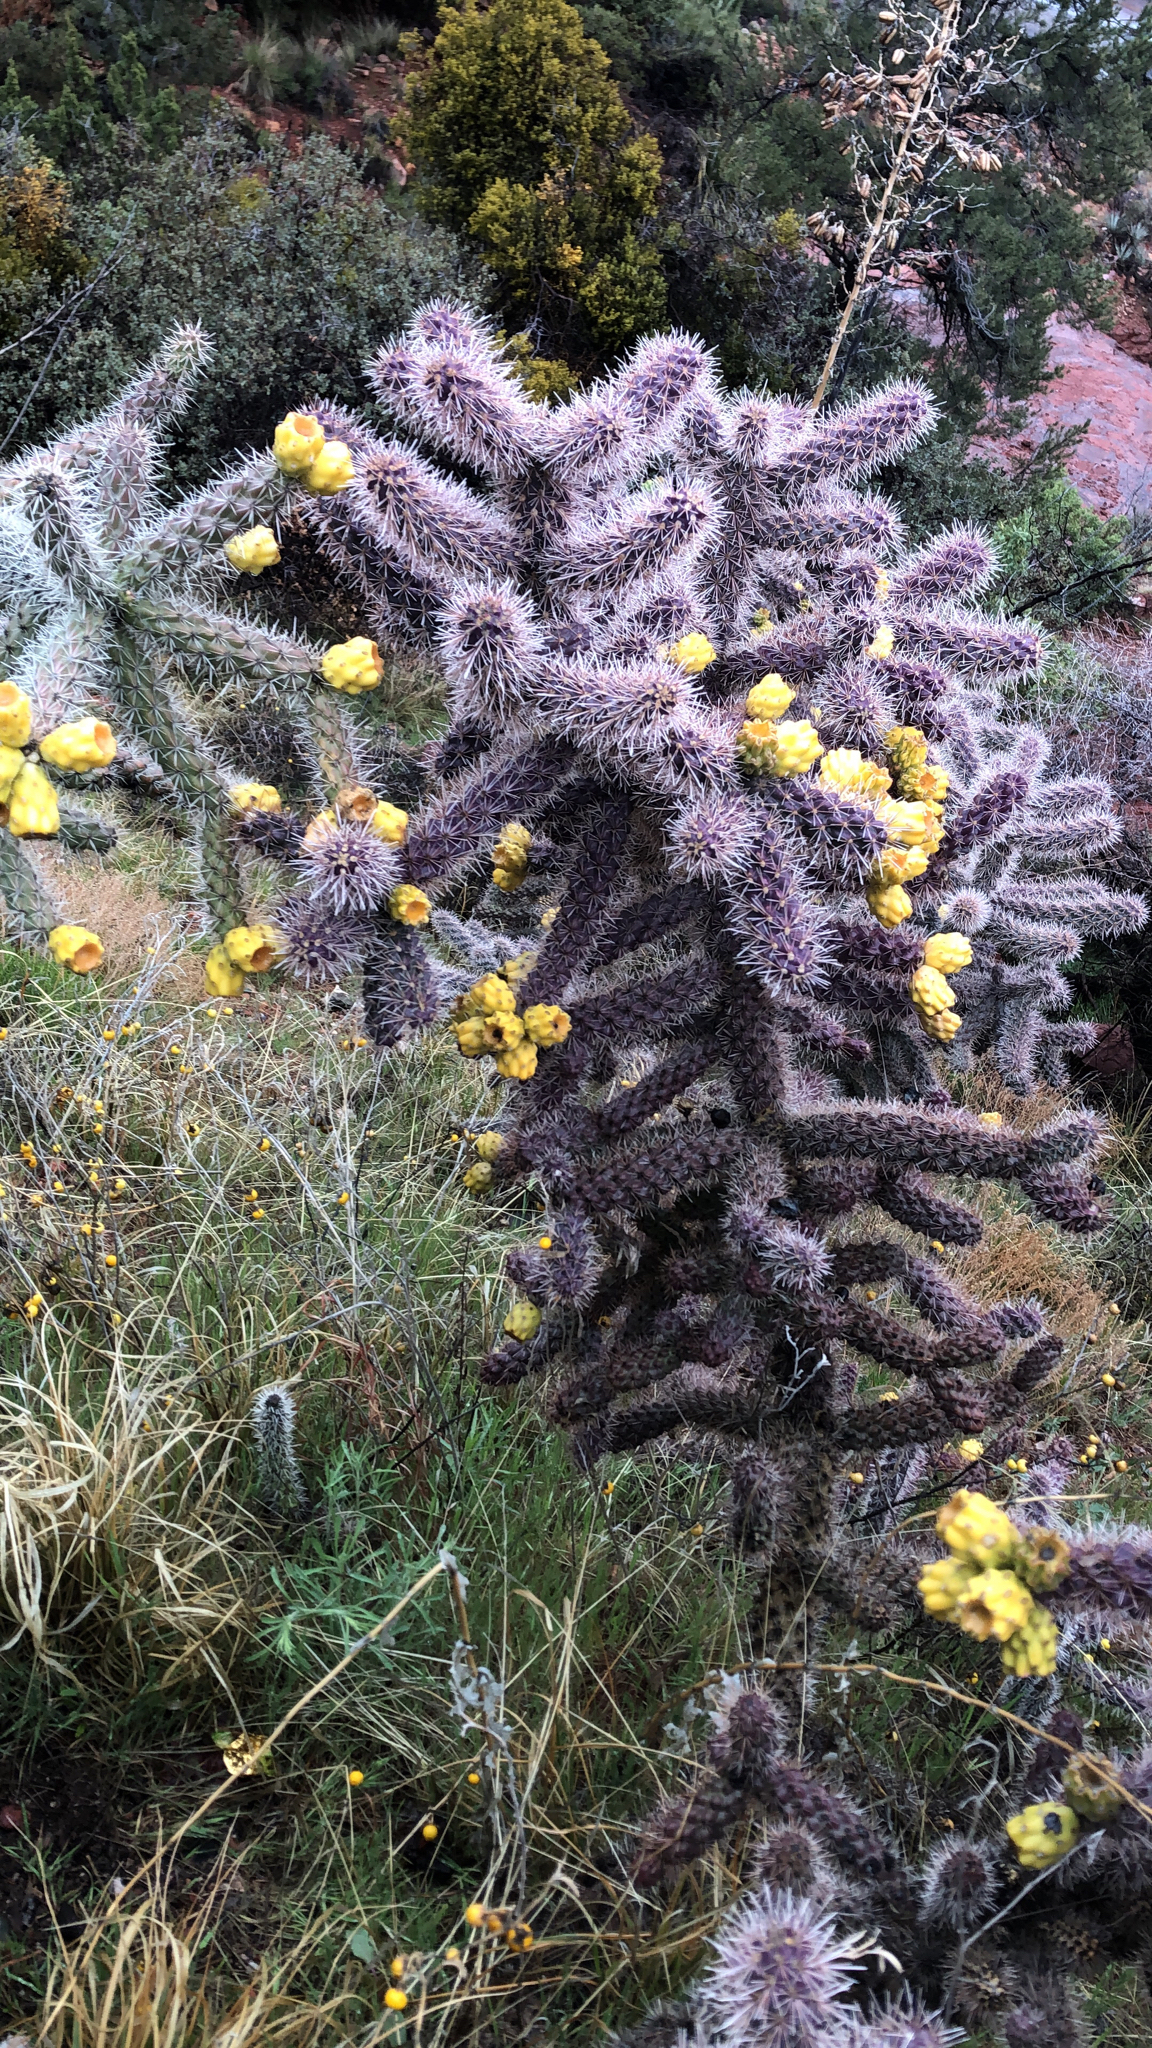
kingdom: Plantae
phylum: Tracheophyta
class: Magnoliopsida
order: Caryophyllales
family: Cactaceae
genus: Cylindropuntia
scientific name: Cylindropuntia imbricata
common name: Candelabrum cactus
